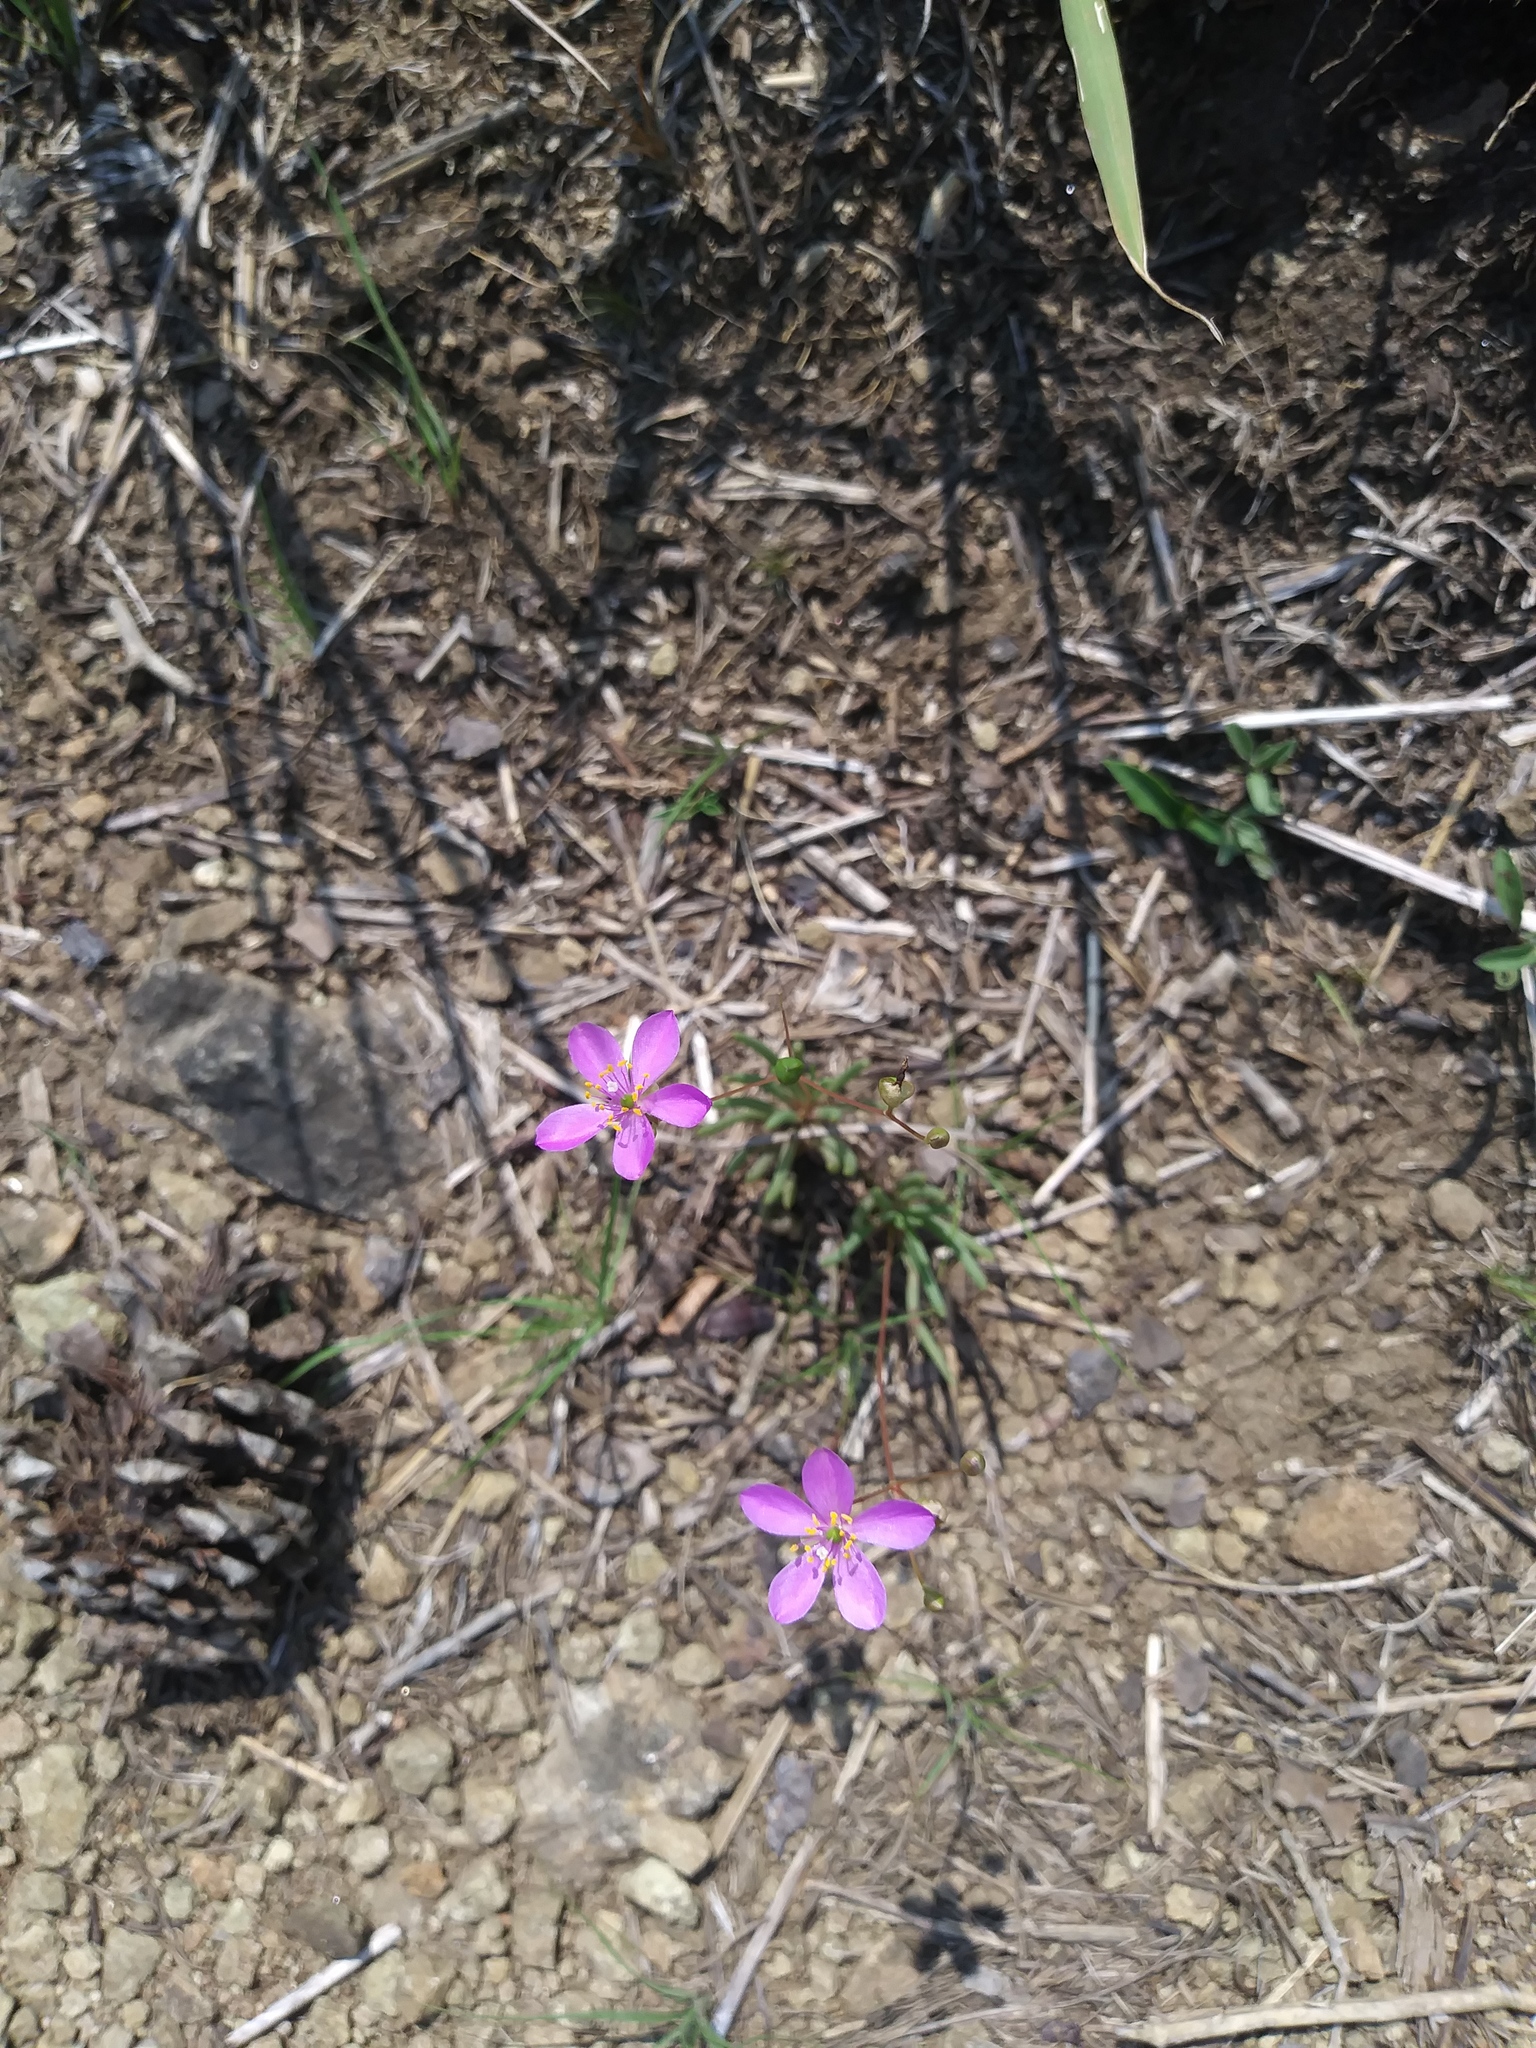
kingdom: Plantae
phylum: Tracheophyta
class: Magnoliopsida
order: Caryophyllales
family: Montiaceae
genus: Phemeranthus
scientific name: Phemeranthus teretifolius
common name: Quill fameflower
